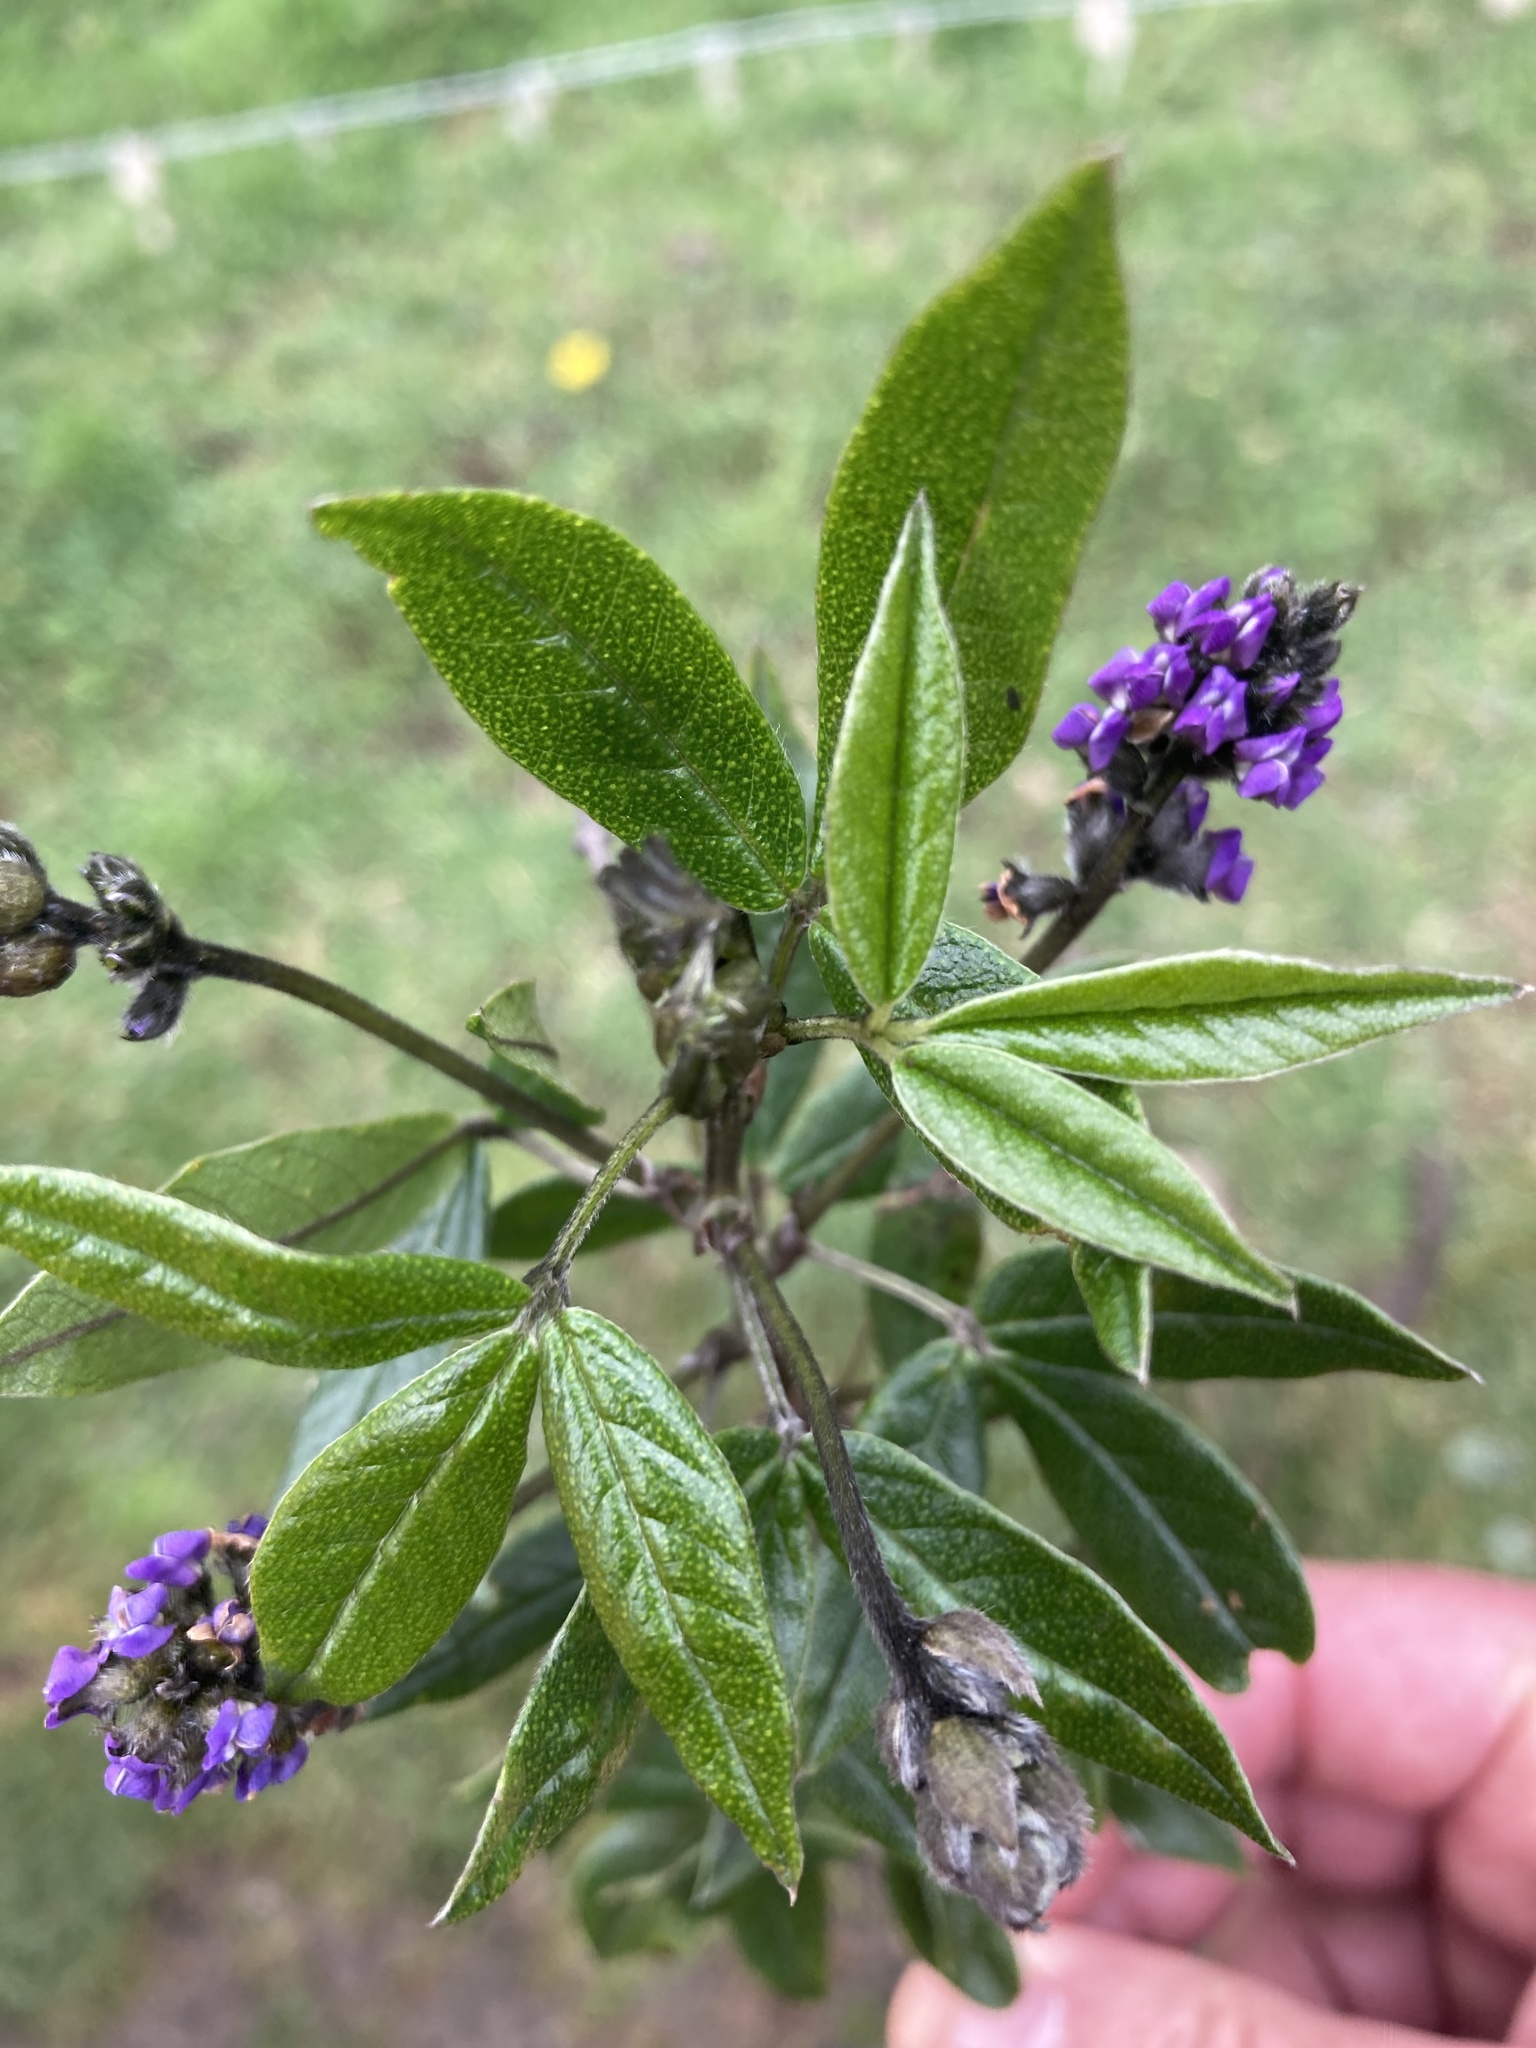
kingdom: Plantae
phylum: Tracheophyta
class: Magnoliopsida
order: Fabales
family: Fabaceae
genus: Psoralea
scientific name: Psoralea Otholobium mexicanum
